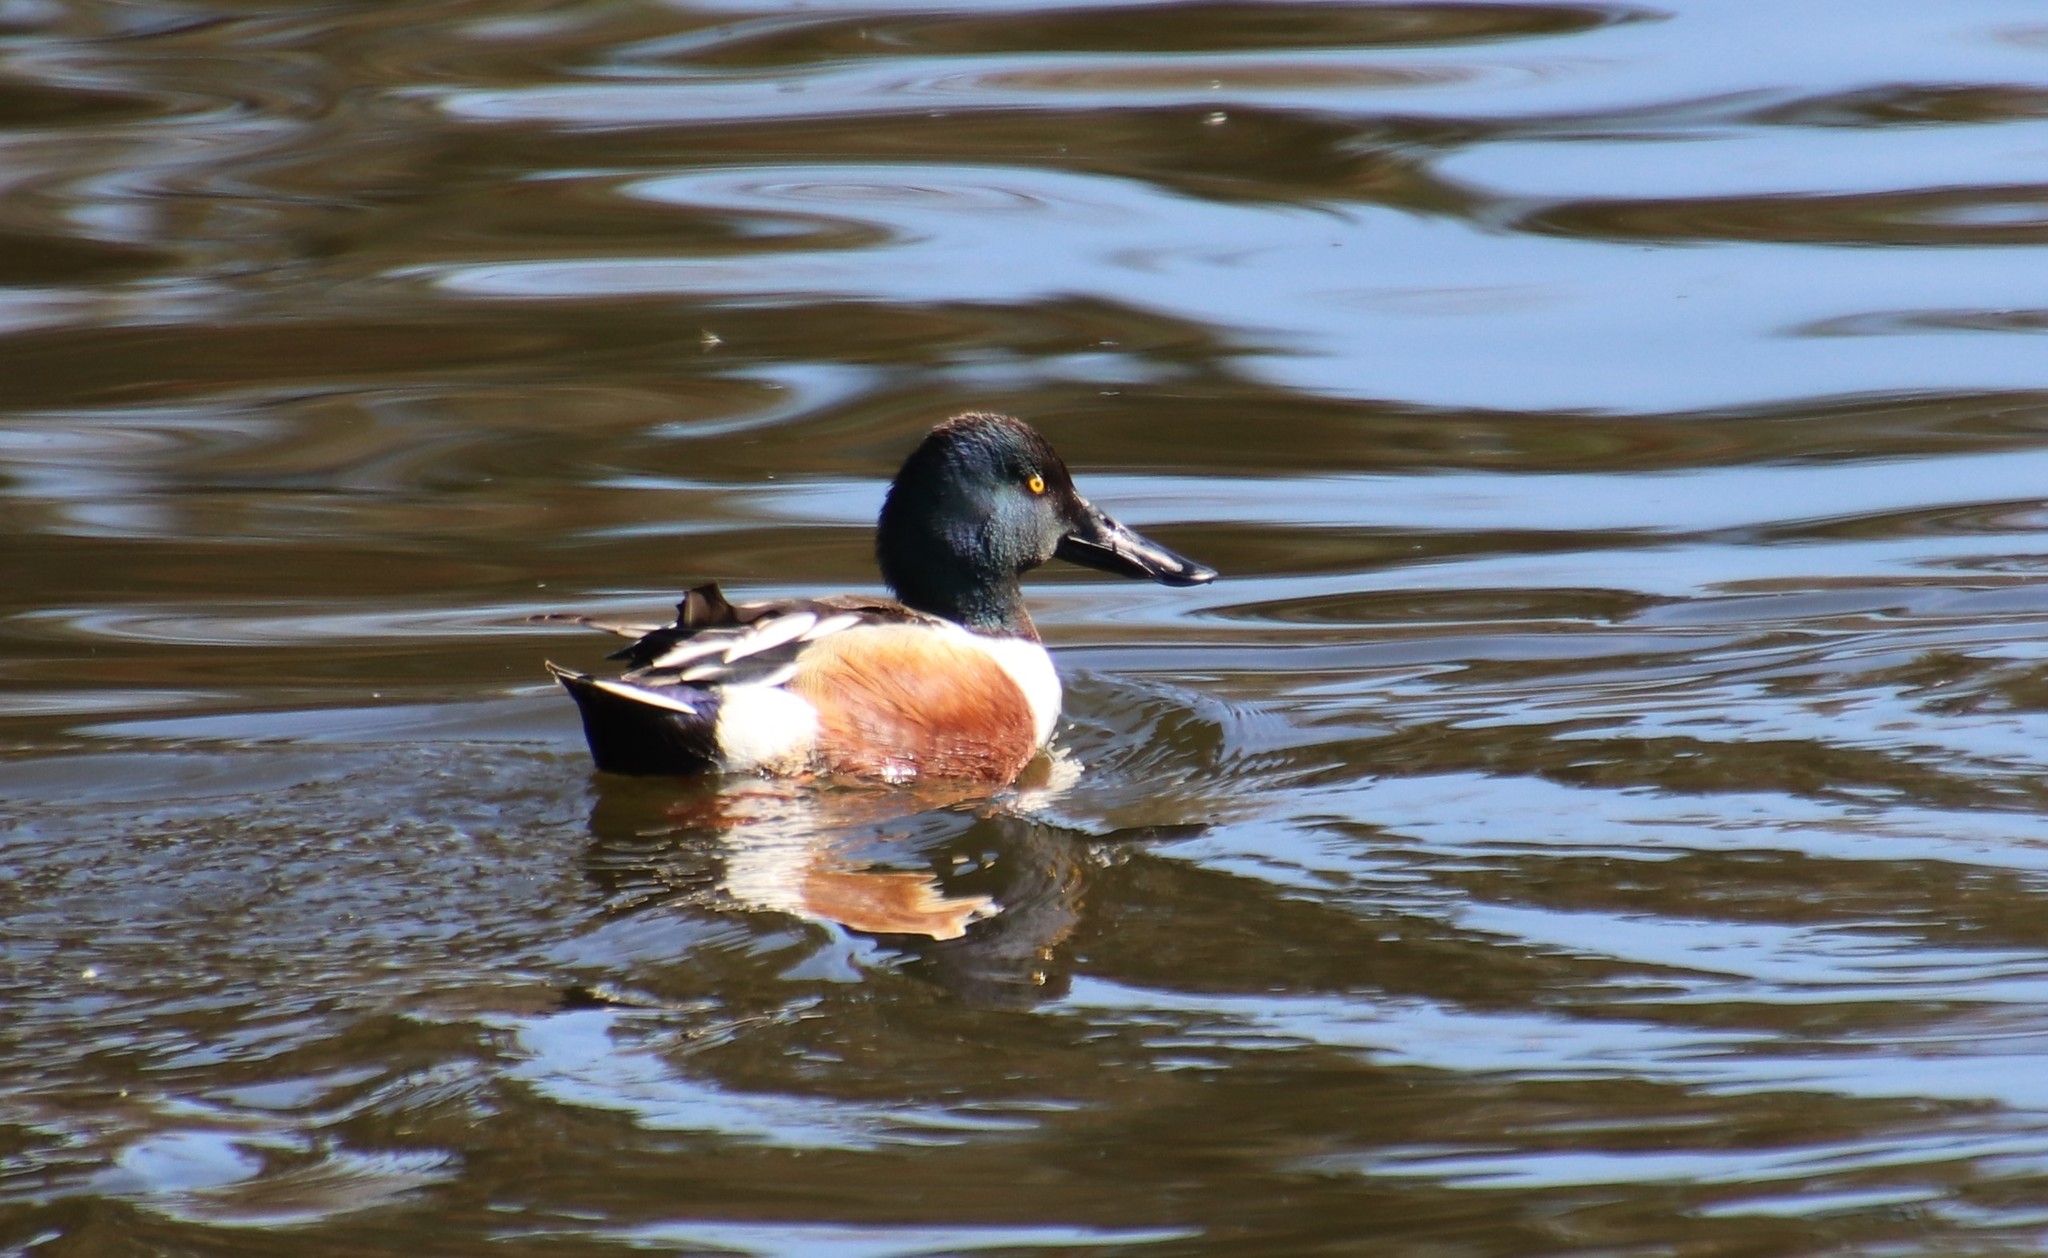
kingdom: Animalia
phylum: Chordata
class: Aves
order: Anseriformes
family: Anatidae
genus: Spatula
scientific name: Spatula clypeata
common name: Northern shoveler
